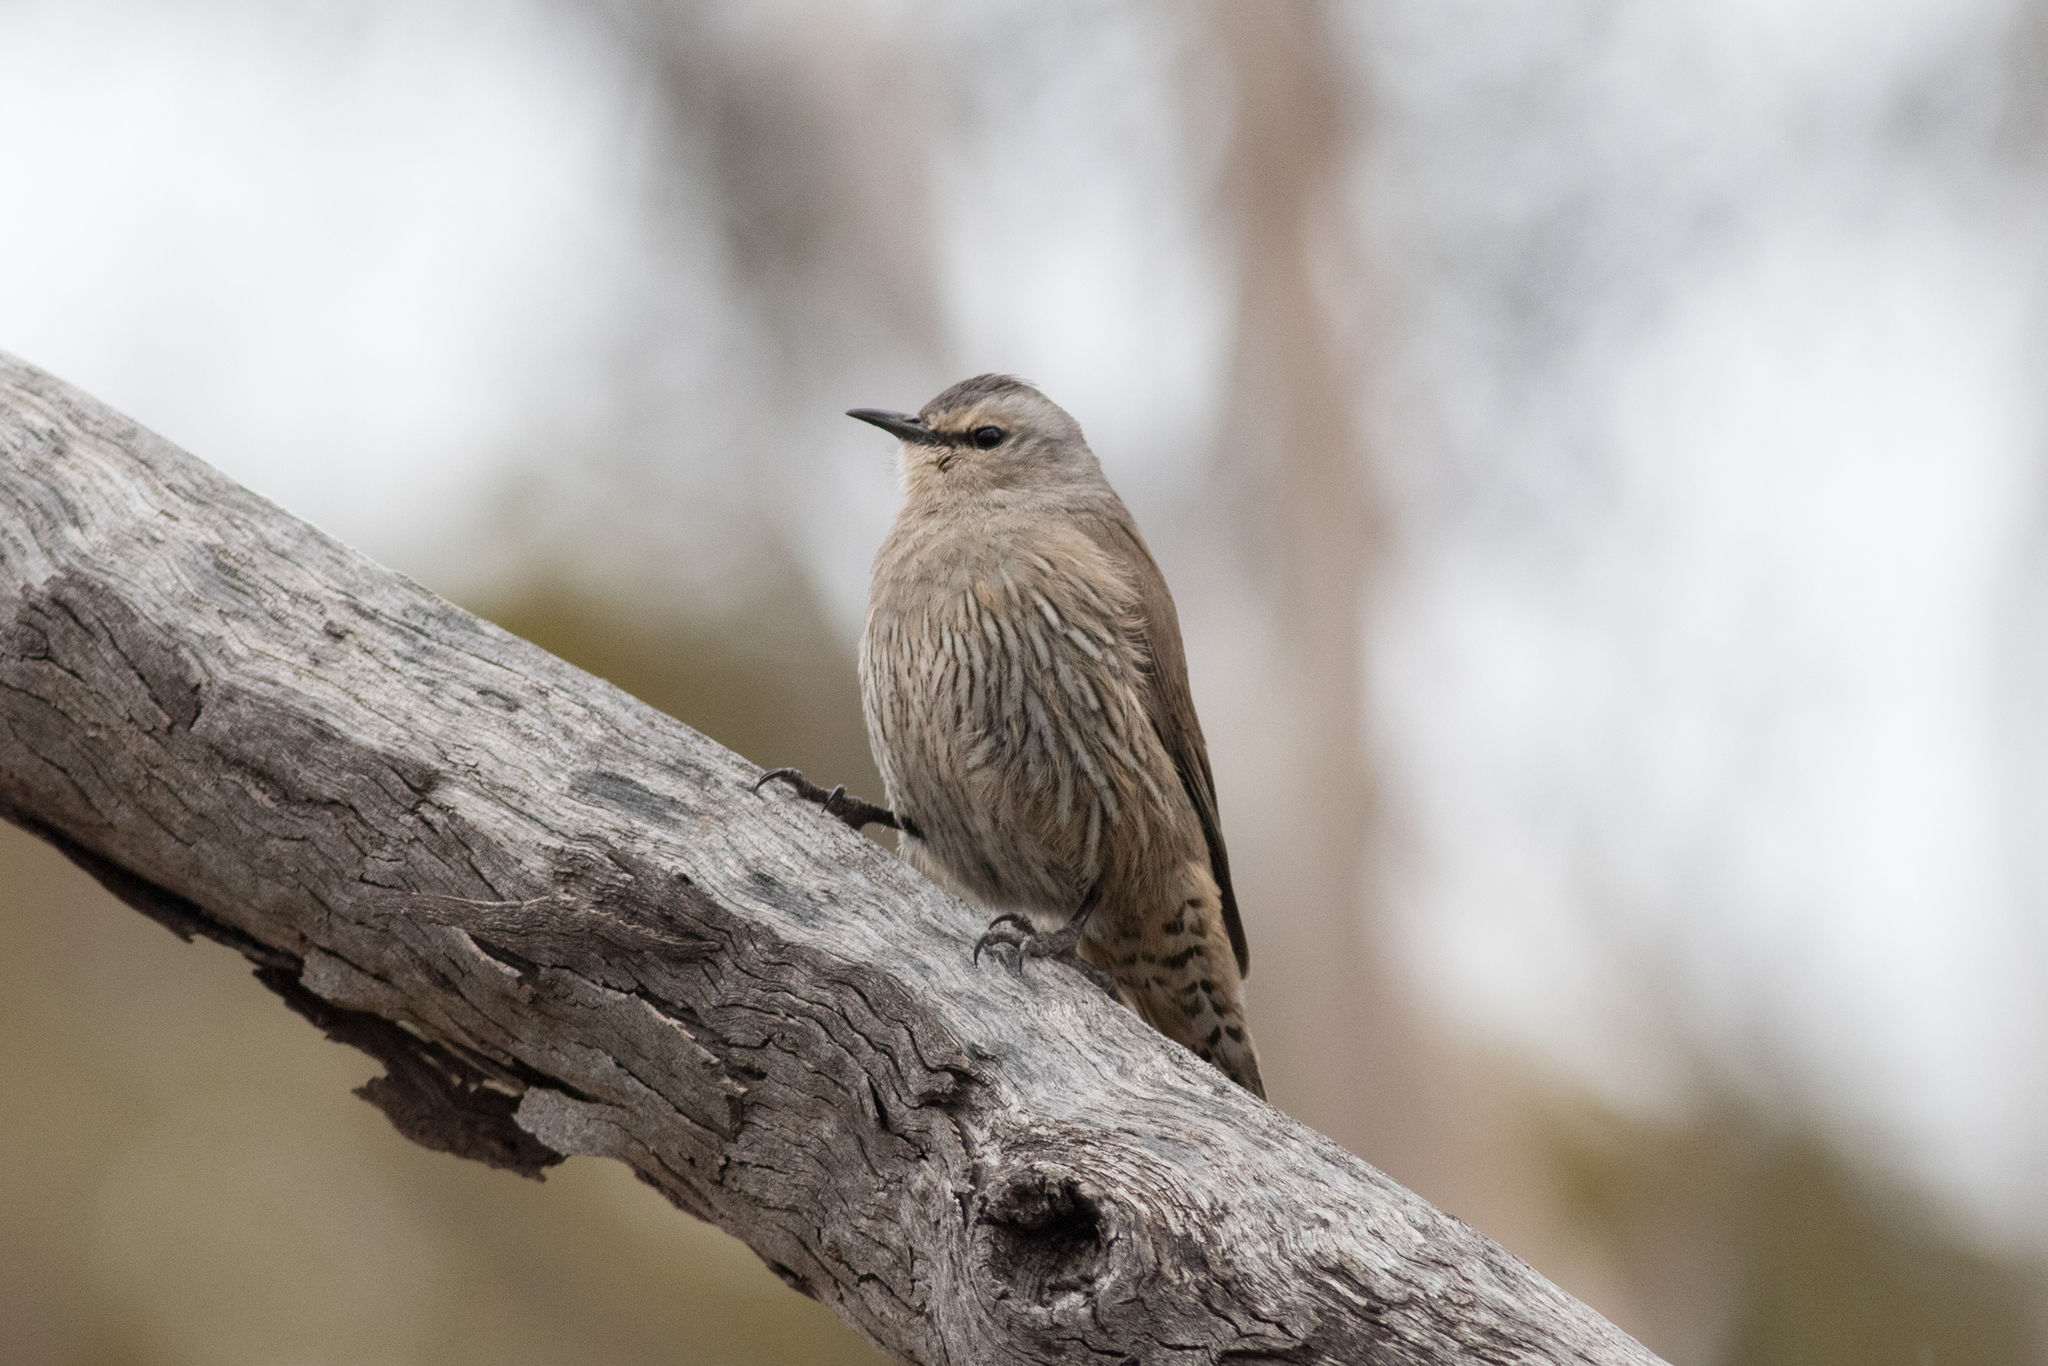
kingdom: Animalia
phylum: Chordata
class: Aves
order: Passeriformes
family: Climacteridae
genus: Climacteris
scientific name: Climacteris picumnus
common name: Brown treecreeper
